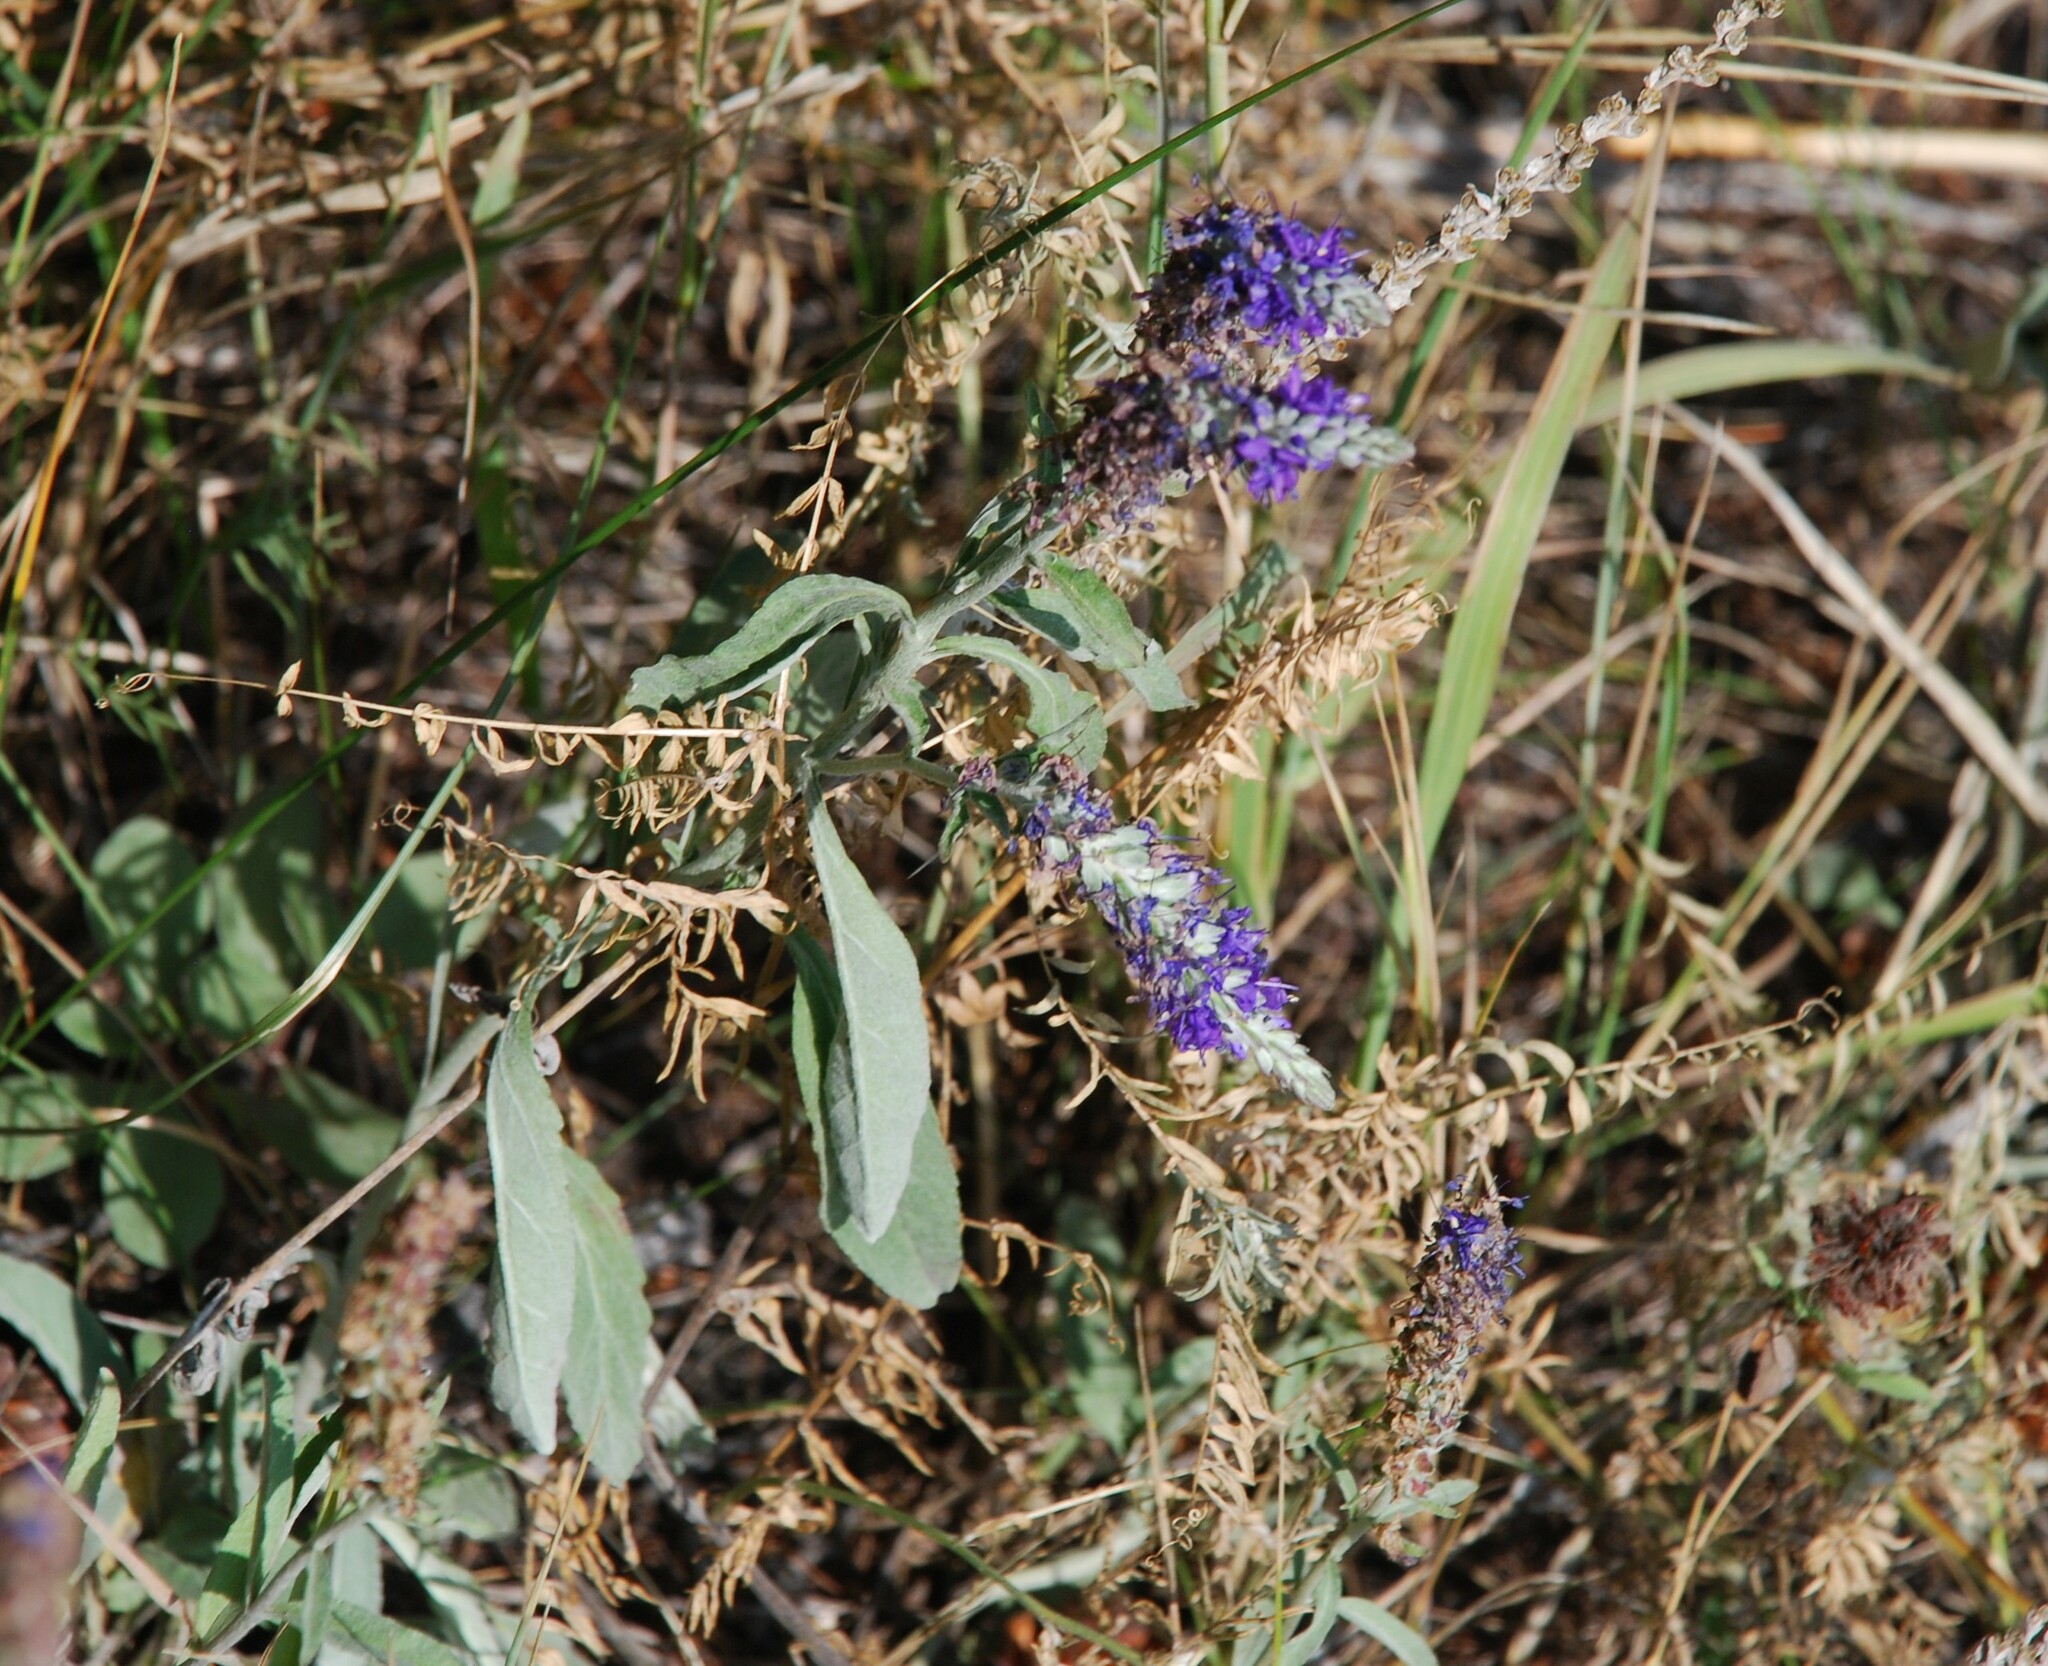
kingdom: Plantae
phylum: Tracheophyta
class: Magnoliopsida
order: Lamiales
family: Plantaginaceae
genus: Veronica
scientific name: Veronica incana
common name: Silver speedwell
